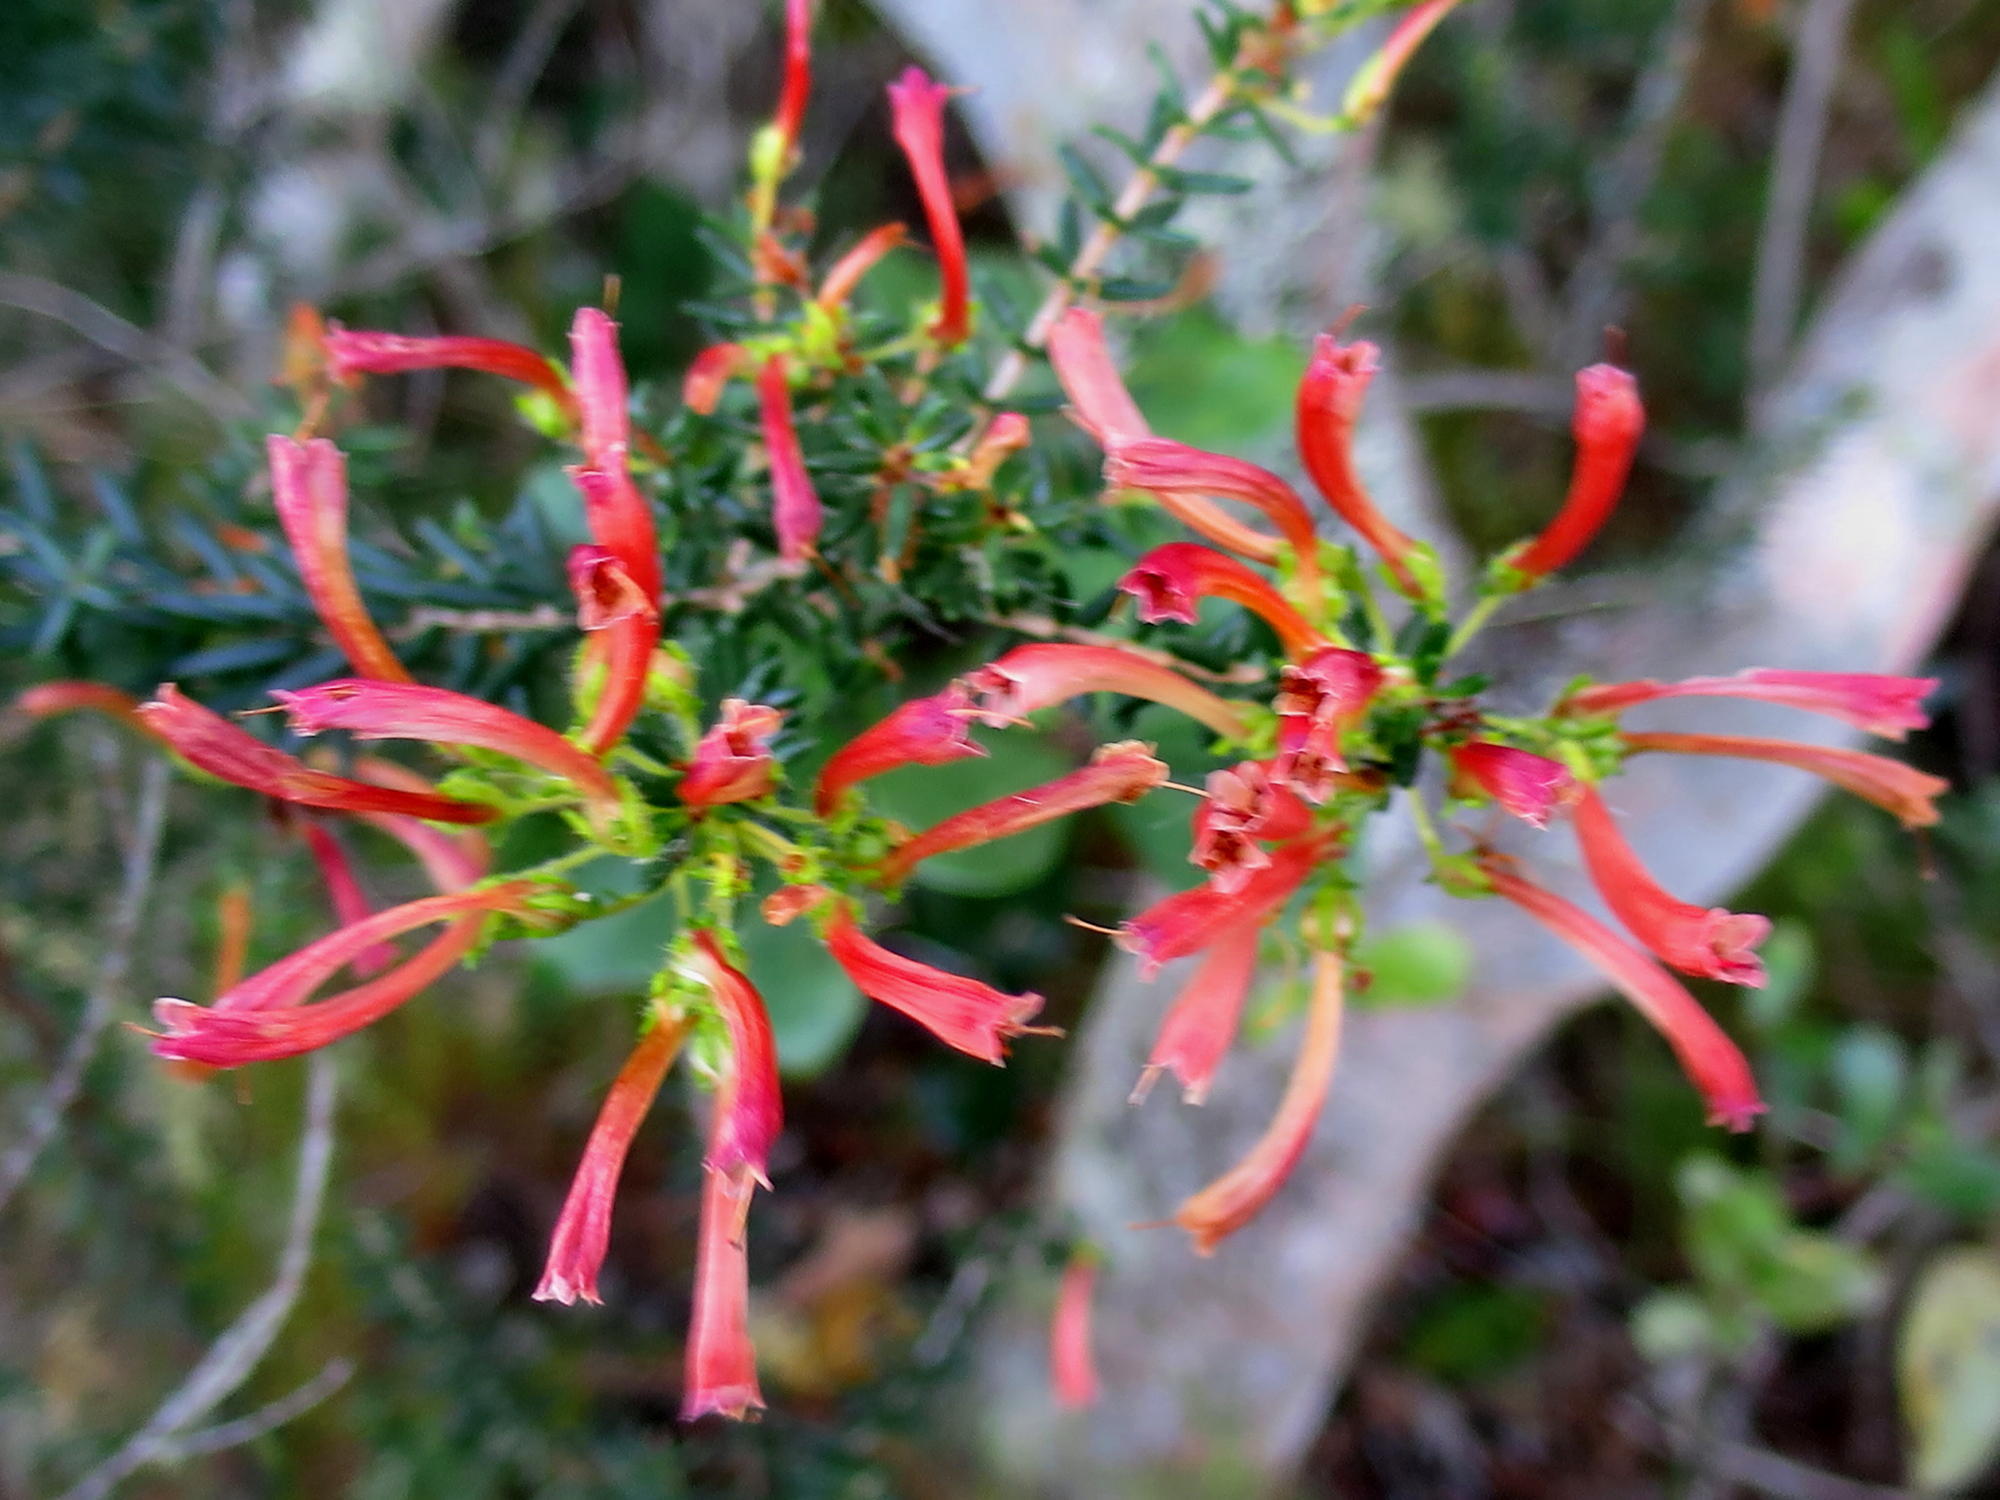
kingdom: Plantae
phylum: Tracheophyta
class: Magnoliopsida
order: Ericales
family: Ericaceae
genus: Erica
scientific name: Erica glandulosa
